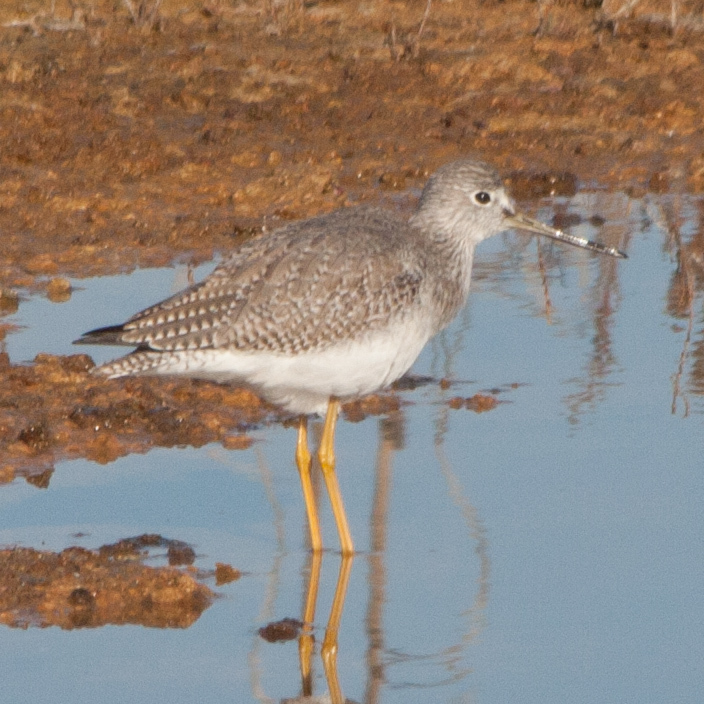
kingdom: Animalia
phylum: Chordata
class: Aves
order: Charadriiformes
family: Scolopacidae
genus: Tringa
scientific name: Tringa melanoleuca
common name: Greater yellowlegs
